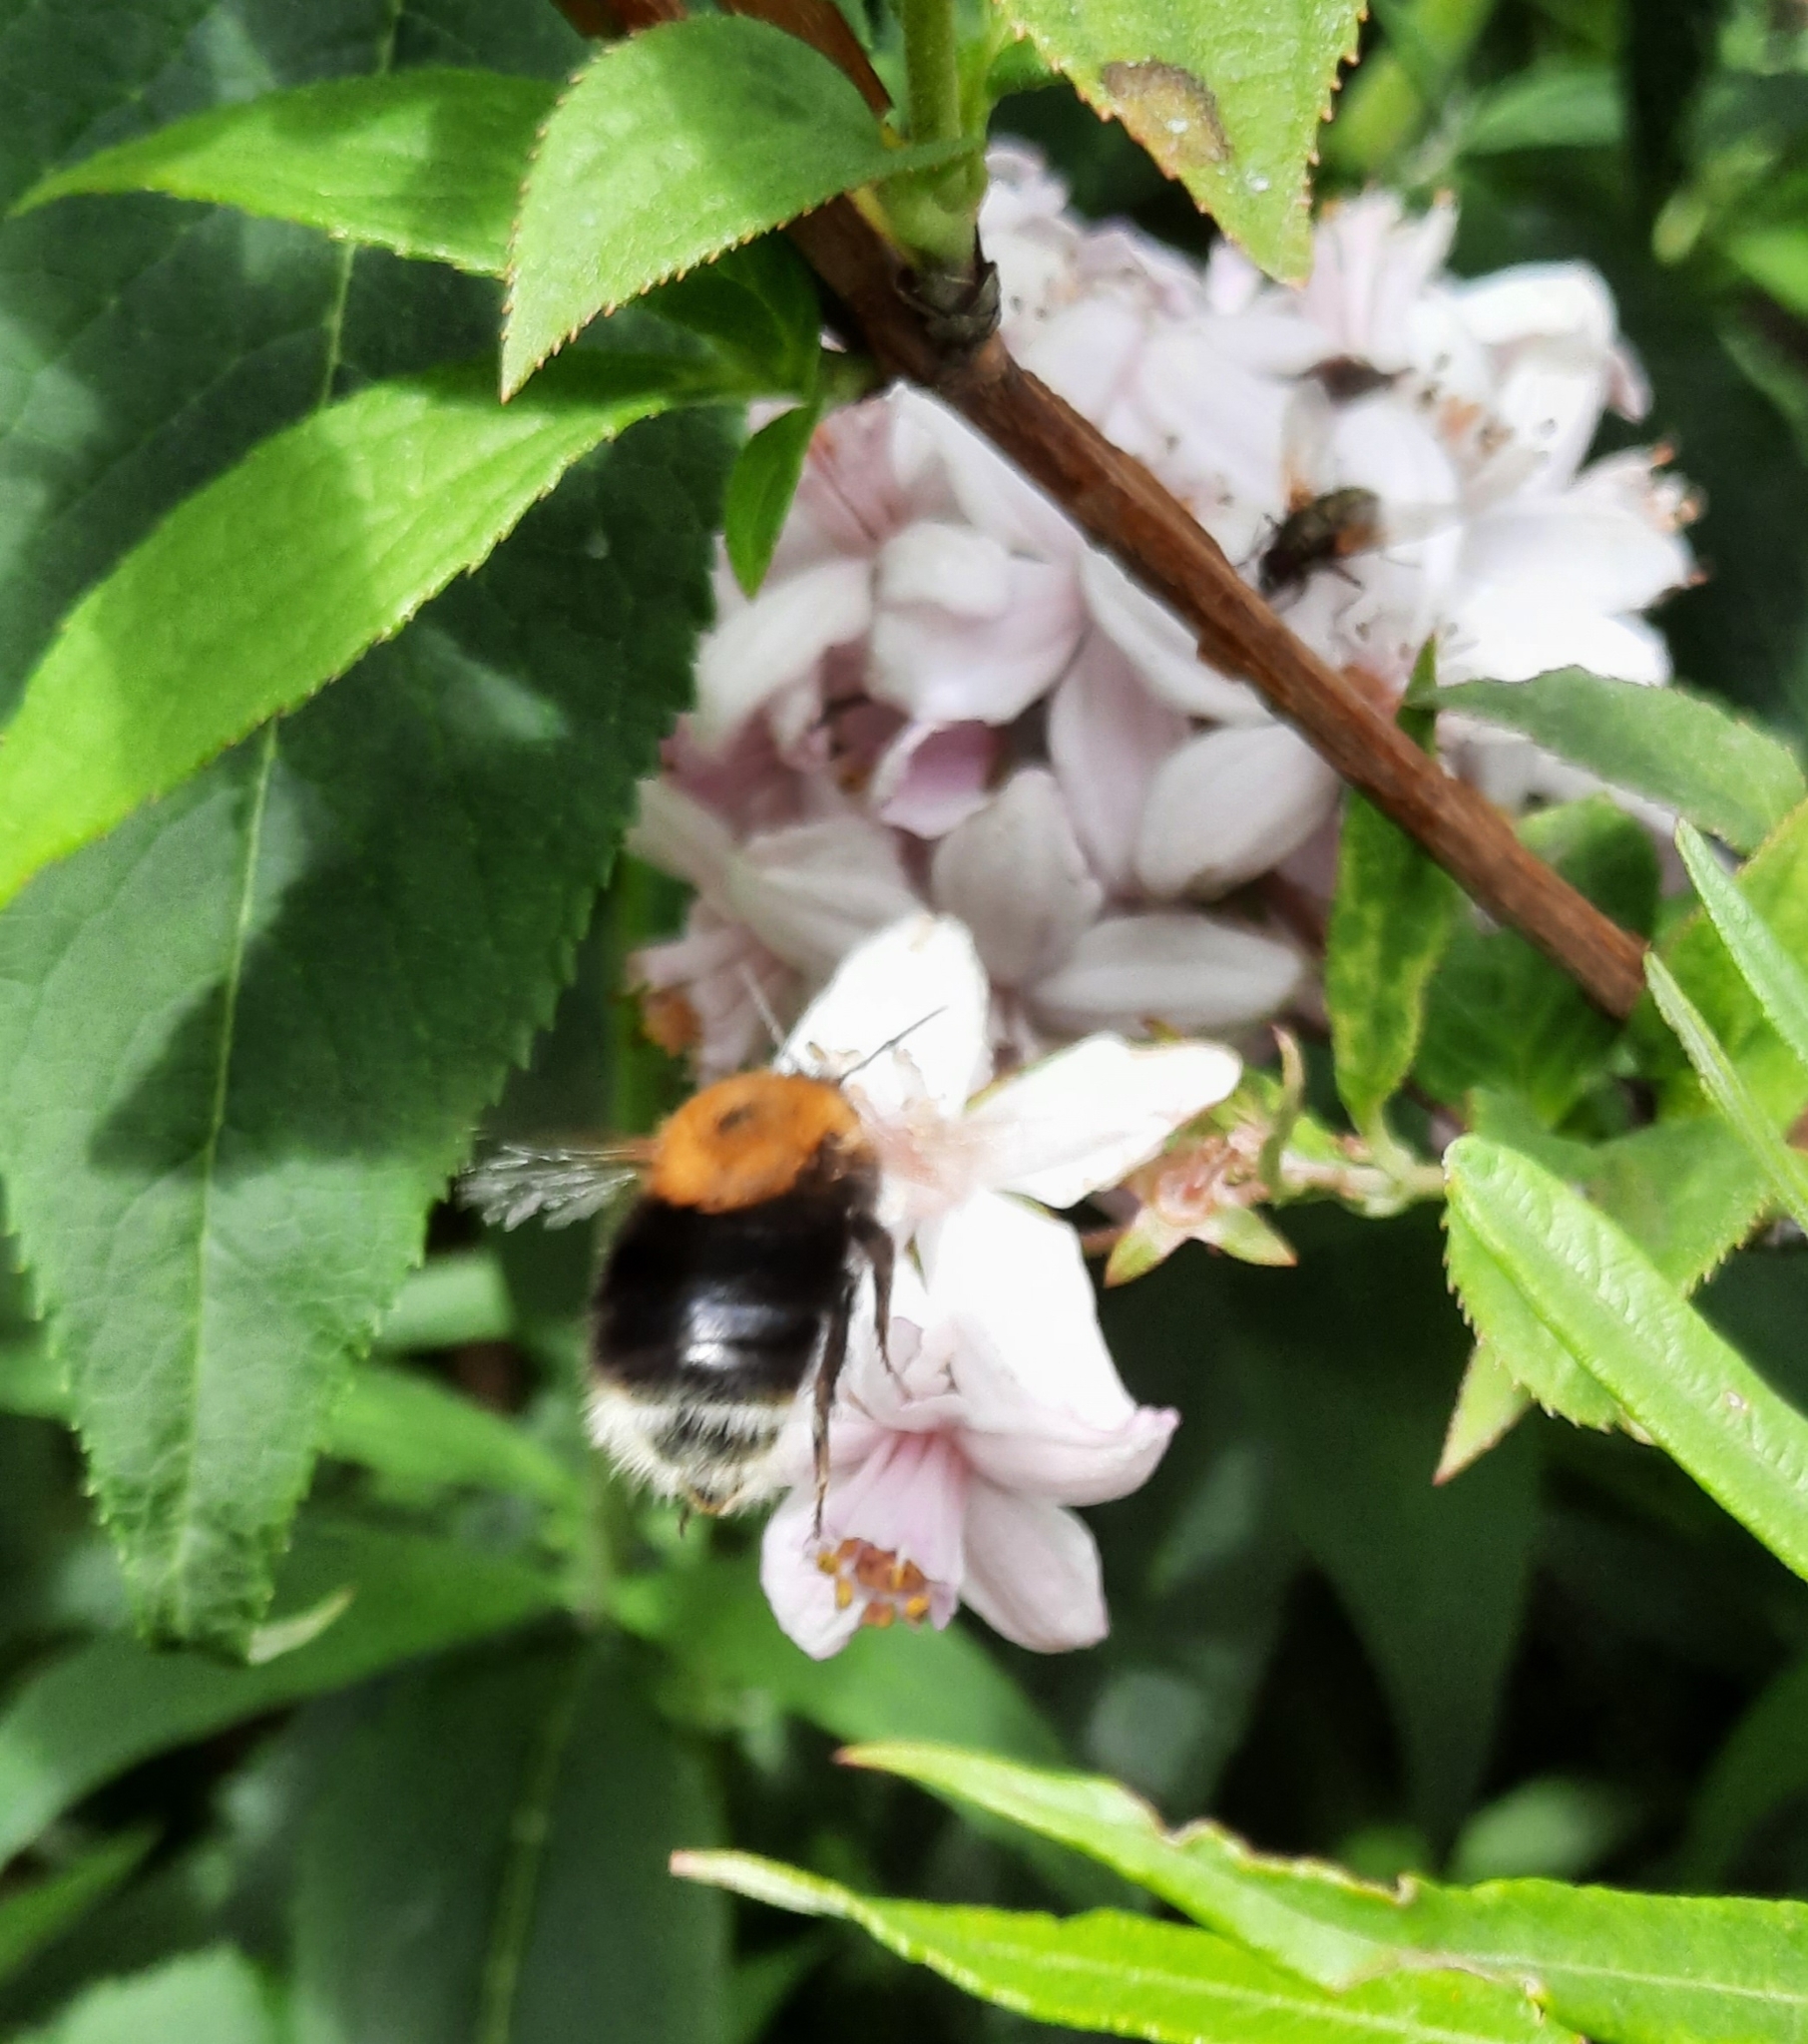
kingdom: Animalia
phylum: Arthropoda
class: Insecta
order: Hymenoptera
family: Apidae
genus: Bombus
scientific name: Bombus hypnorum
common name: New garden bumblebee
